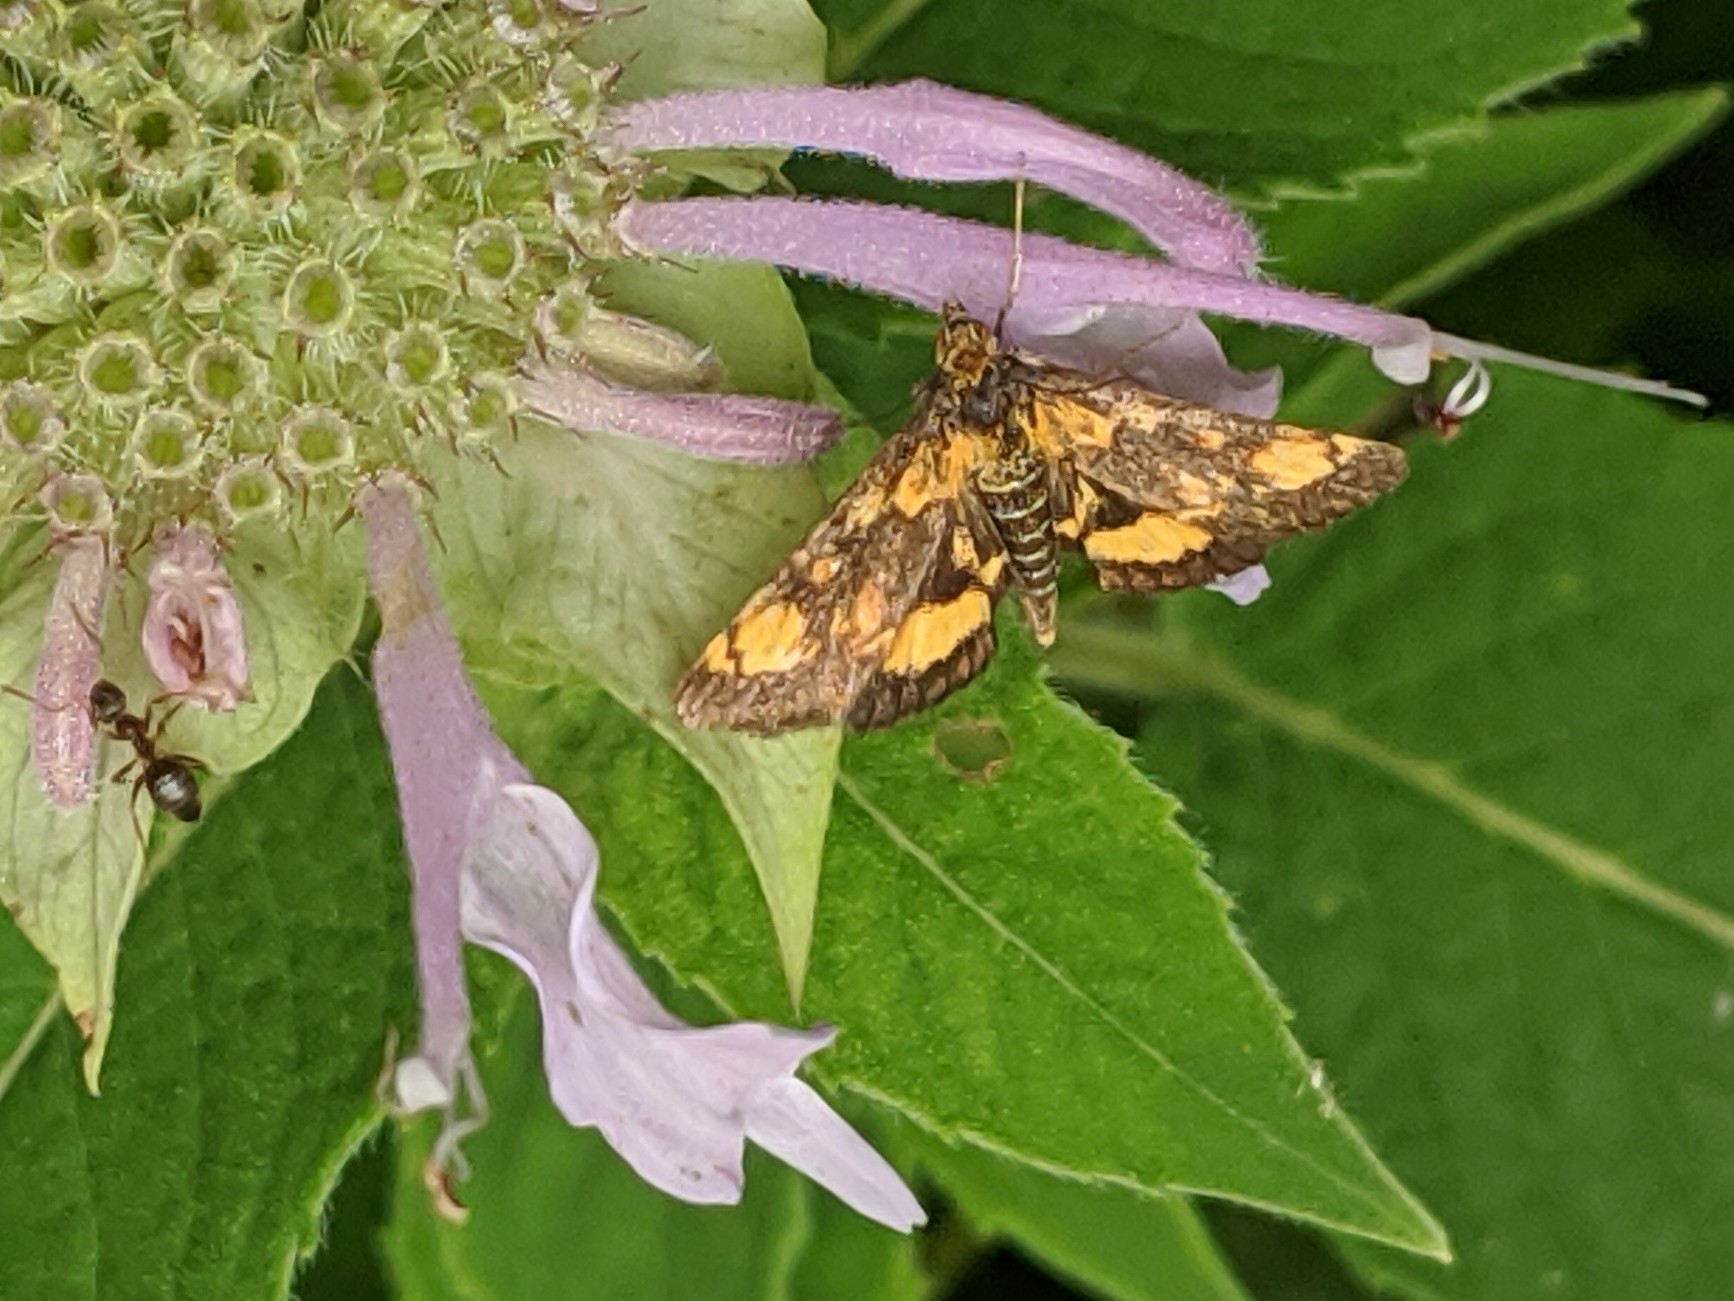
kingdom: Animalia
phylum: Arthropoda
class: Insecta
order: Lepidoptera
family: Crambidae
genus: Pyrausta
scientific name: Pyrausta orphisalis
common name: Orange mint moth
